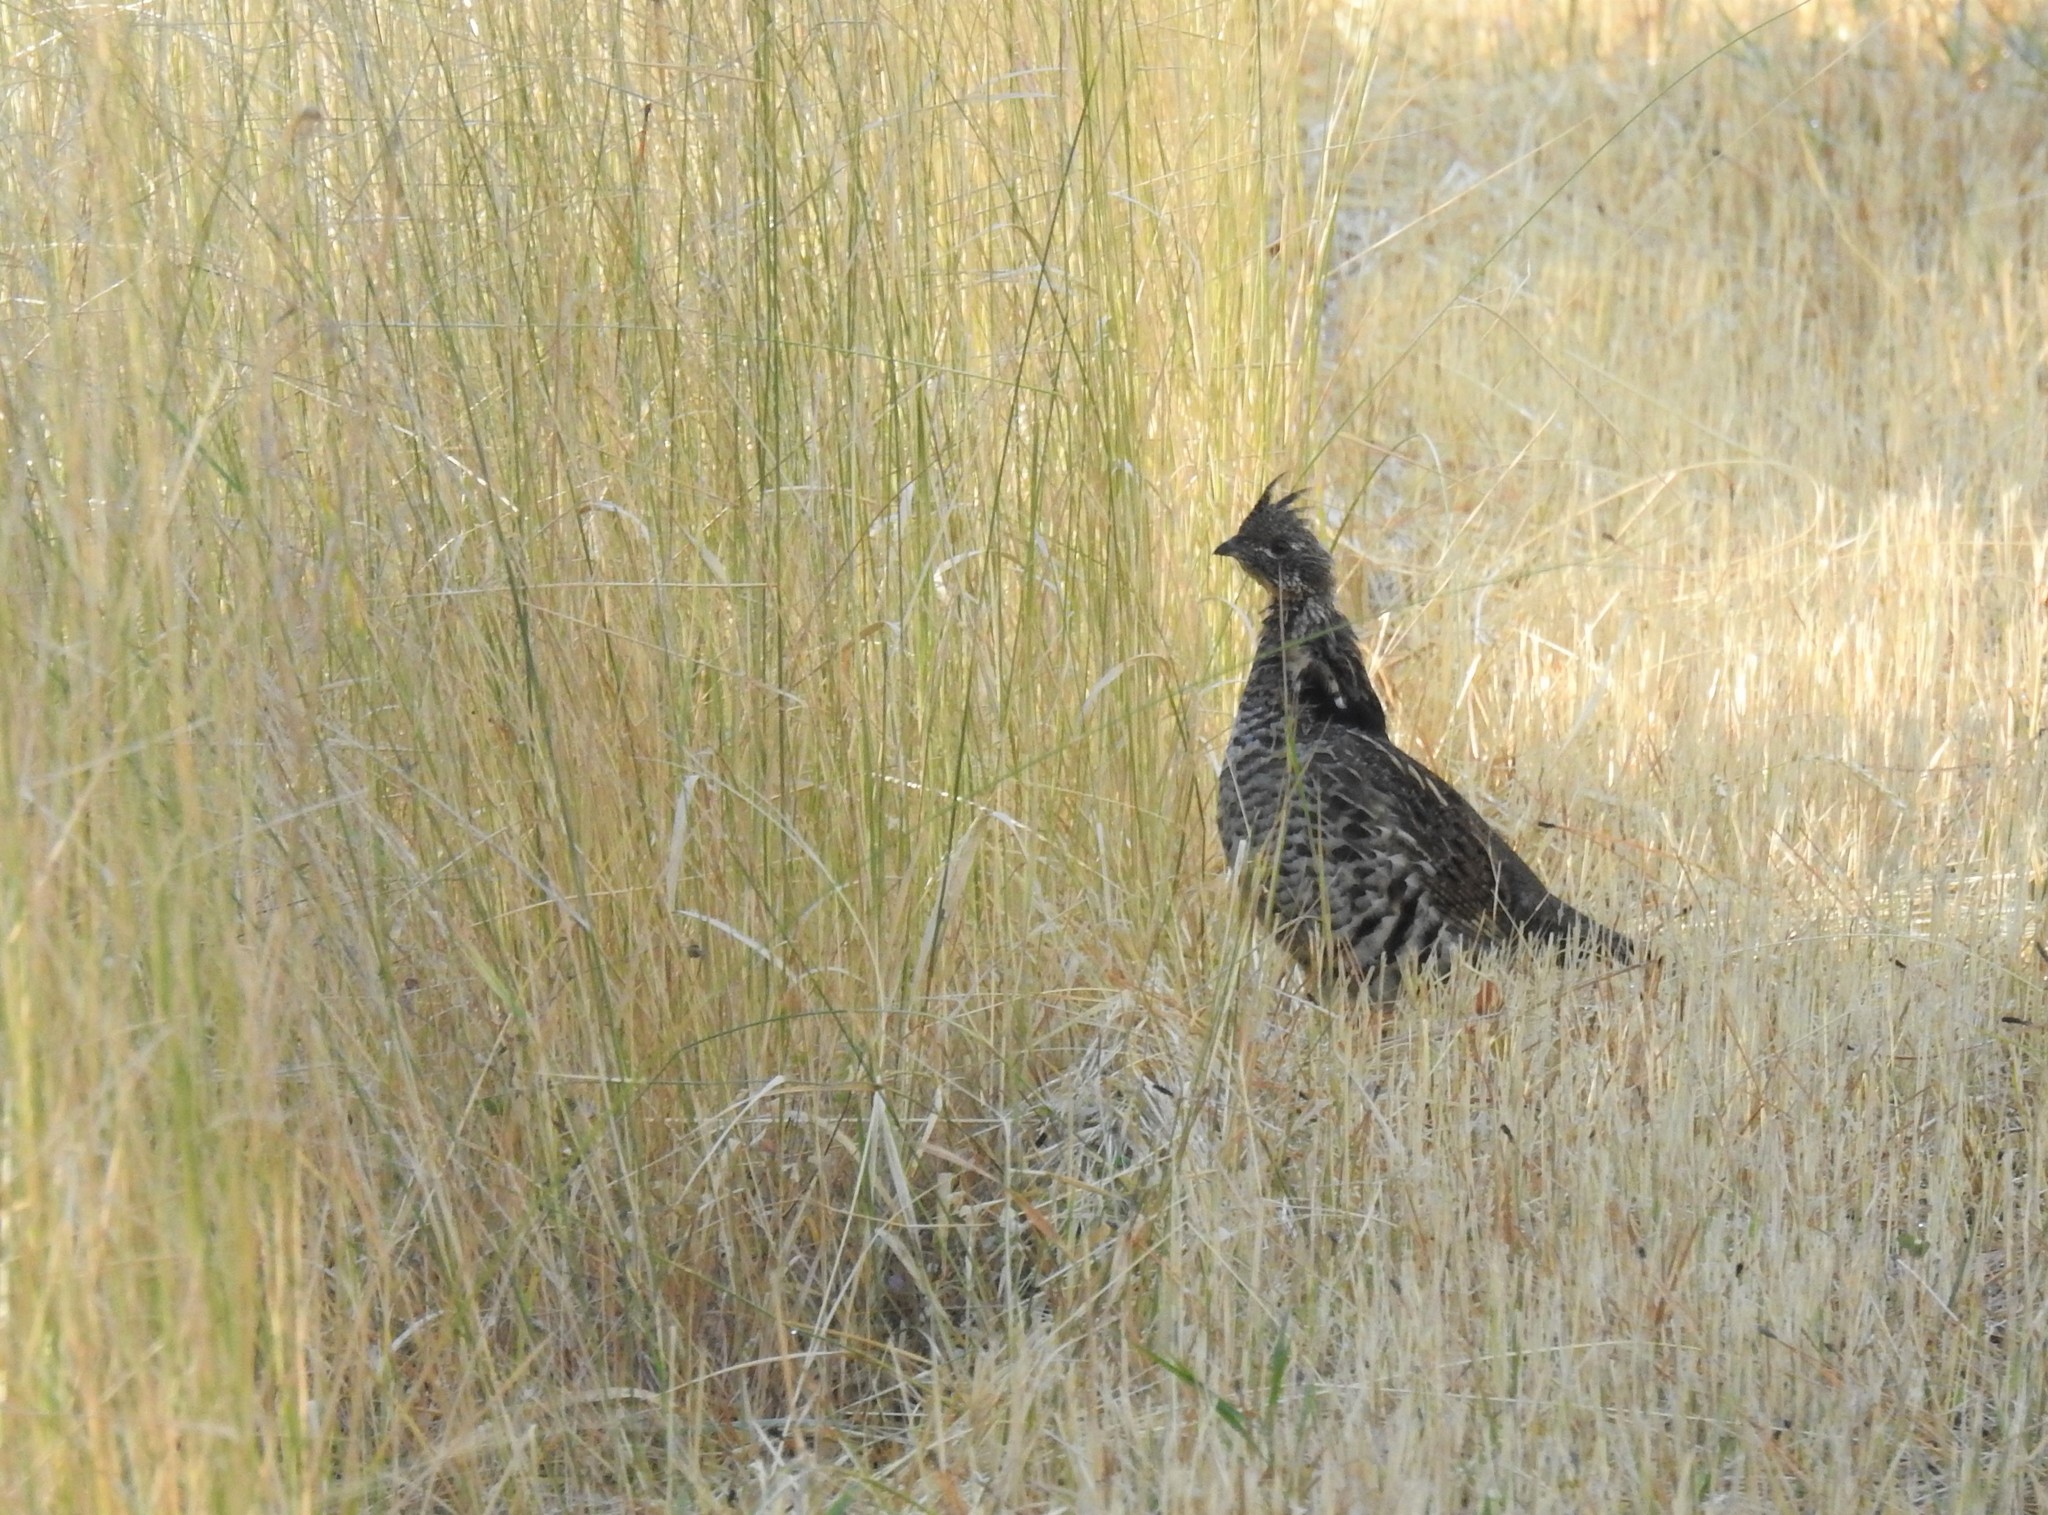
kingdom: Animalia
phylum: Chordata
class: Aves
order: Galliformes
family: Phasianidae
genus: Bonasa
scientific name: Bonasa umbellus
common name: Ruffed grouse
